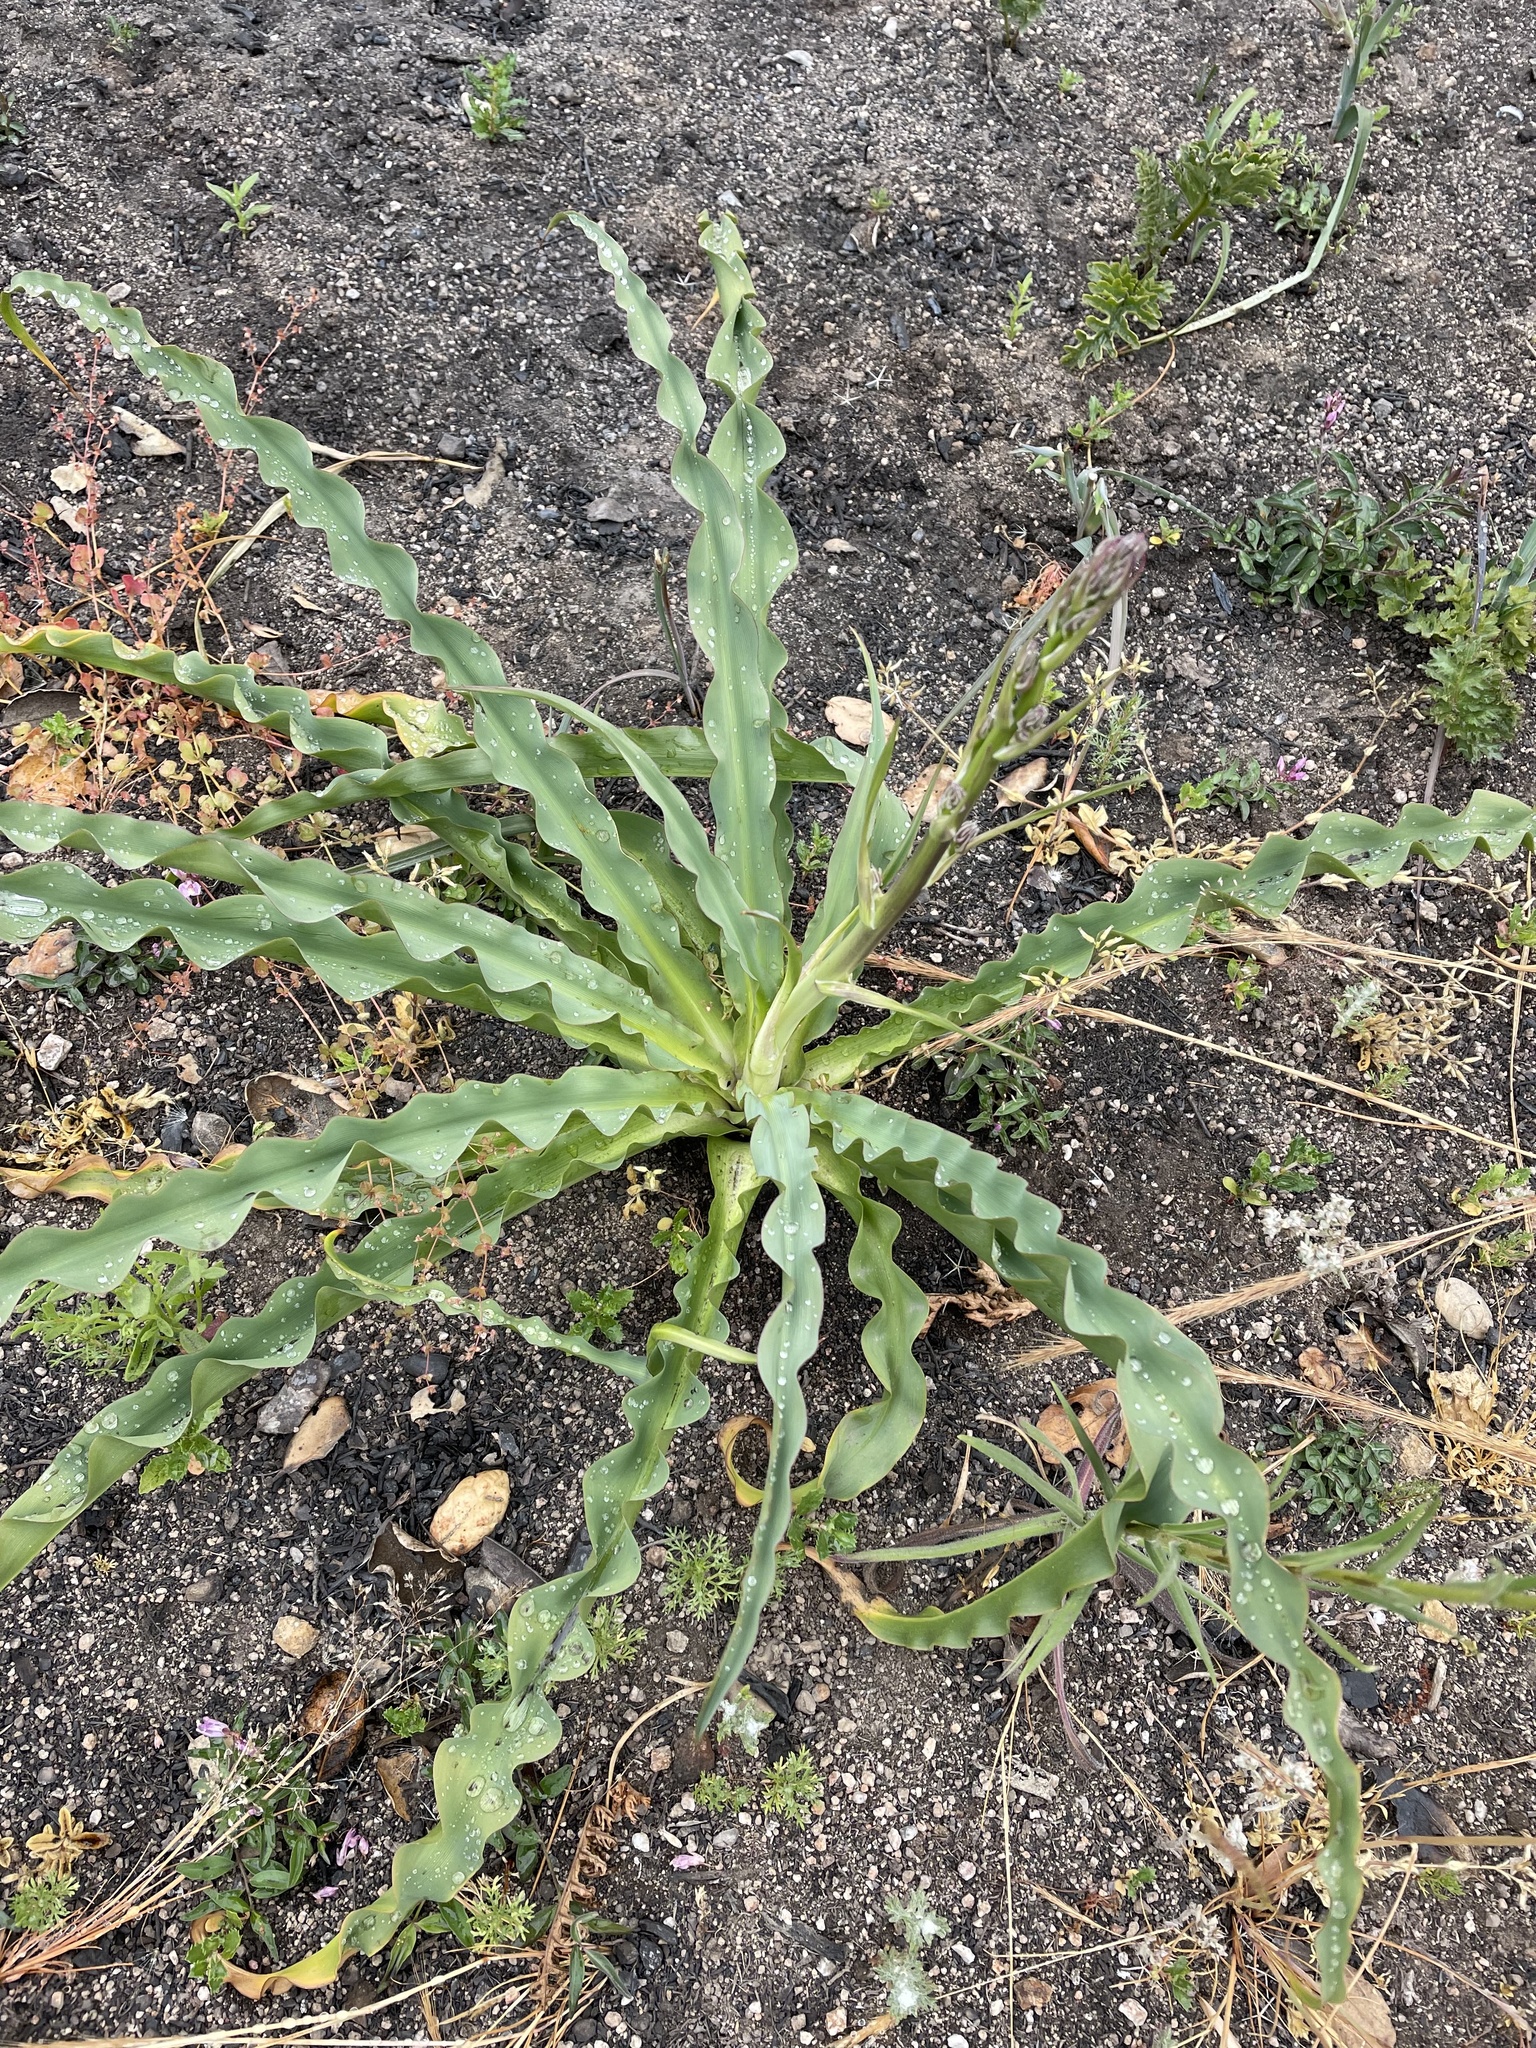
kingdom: Plantae
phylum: Tracheophyta
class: Liliopsida
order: Asparagales
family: Asparagaceae
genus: Chlorogalum
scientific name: Chlorogalum pomeridianum
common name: Amole
